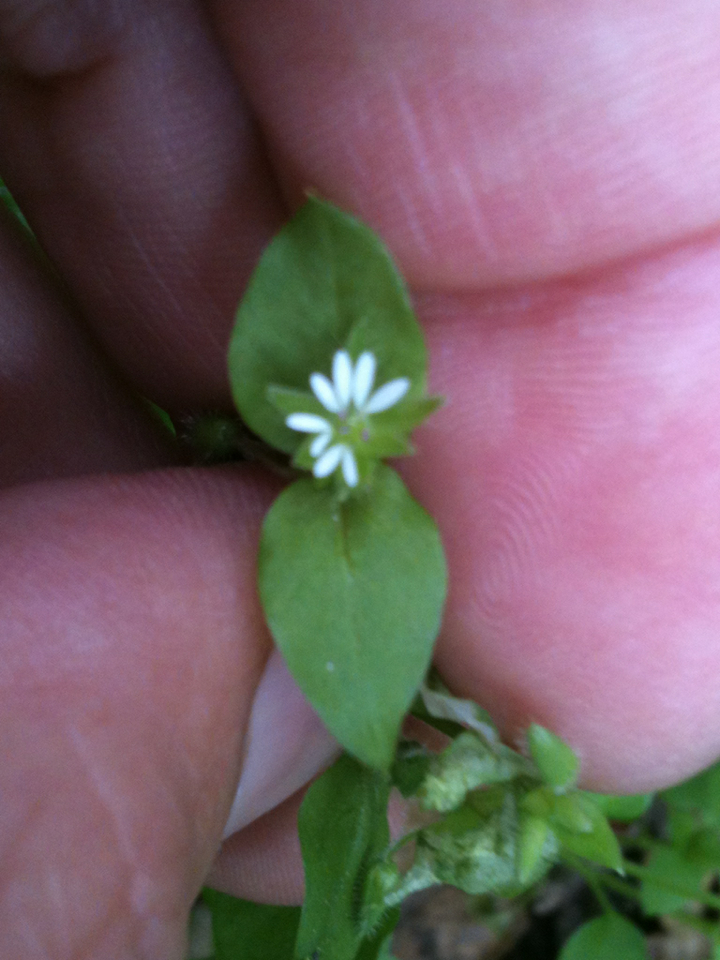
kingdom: Plantae
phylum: Tracheophyta
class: Magnoliopsida
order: Caryophyllales
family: Caryophyllaceae
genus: Stellaria
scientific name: Stellaria media
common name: Common chickweed
